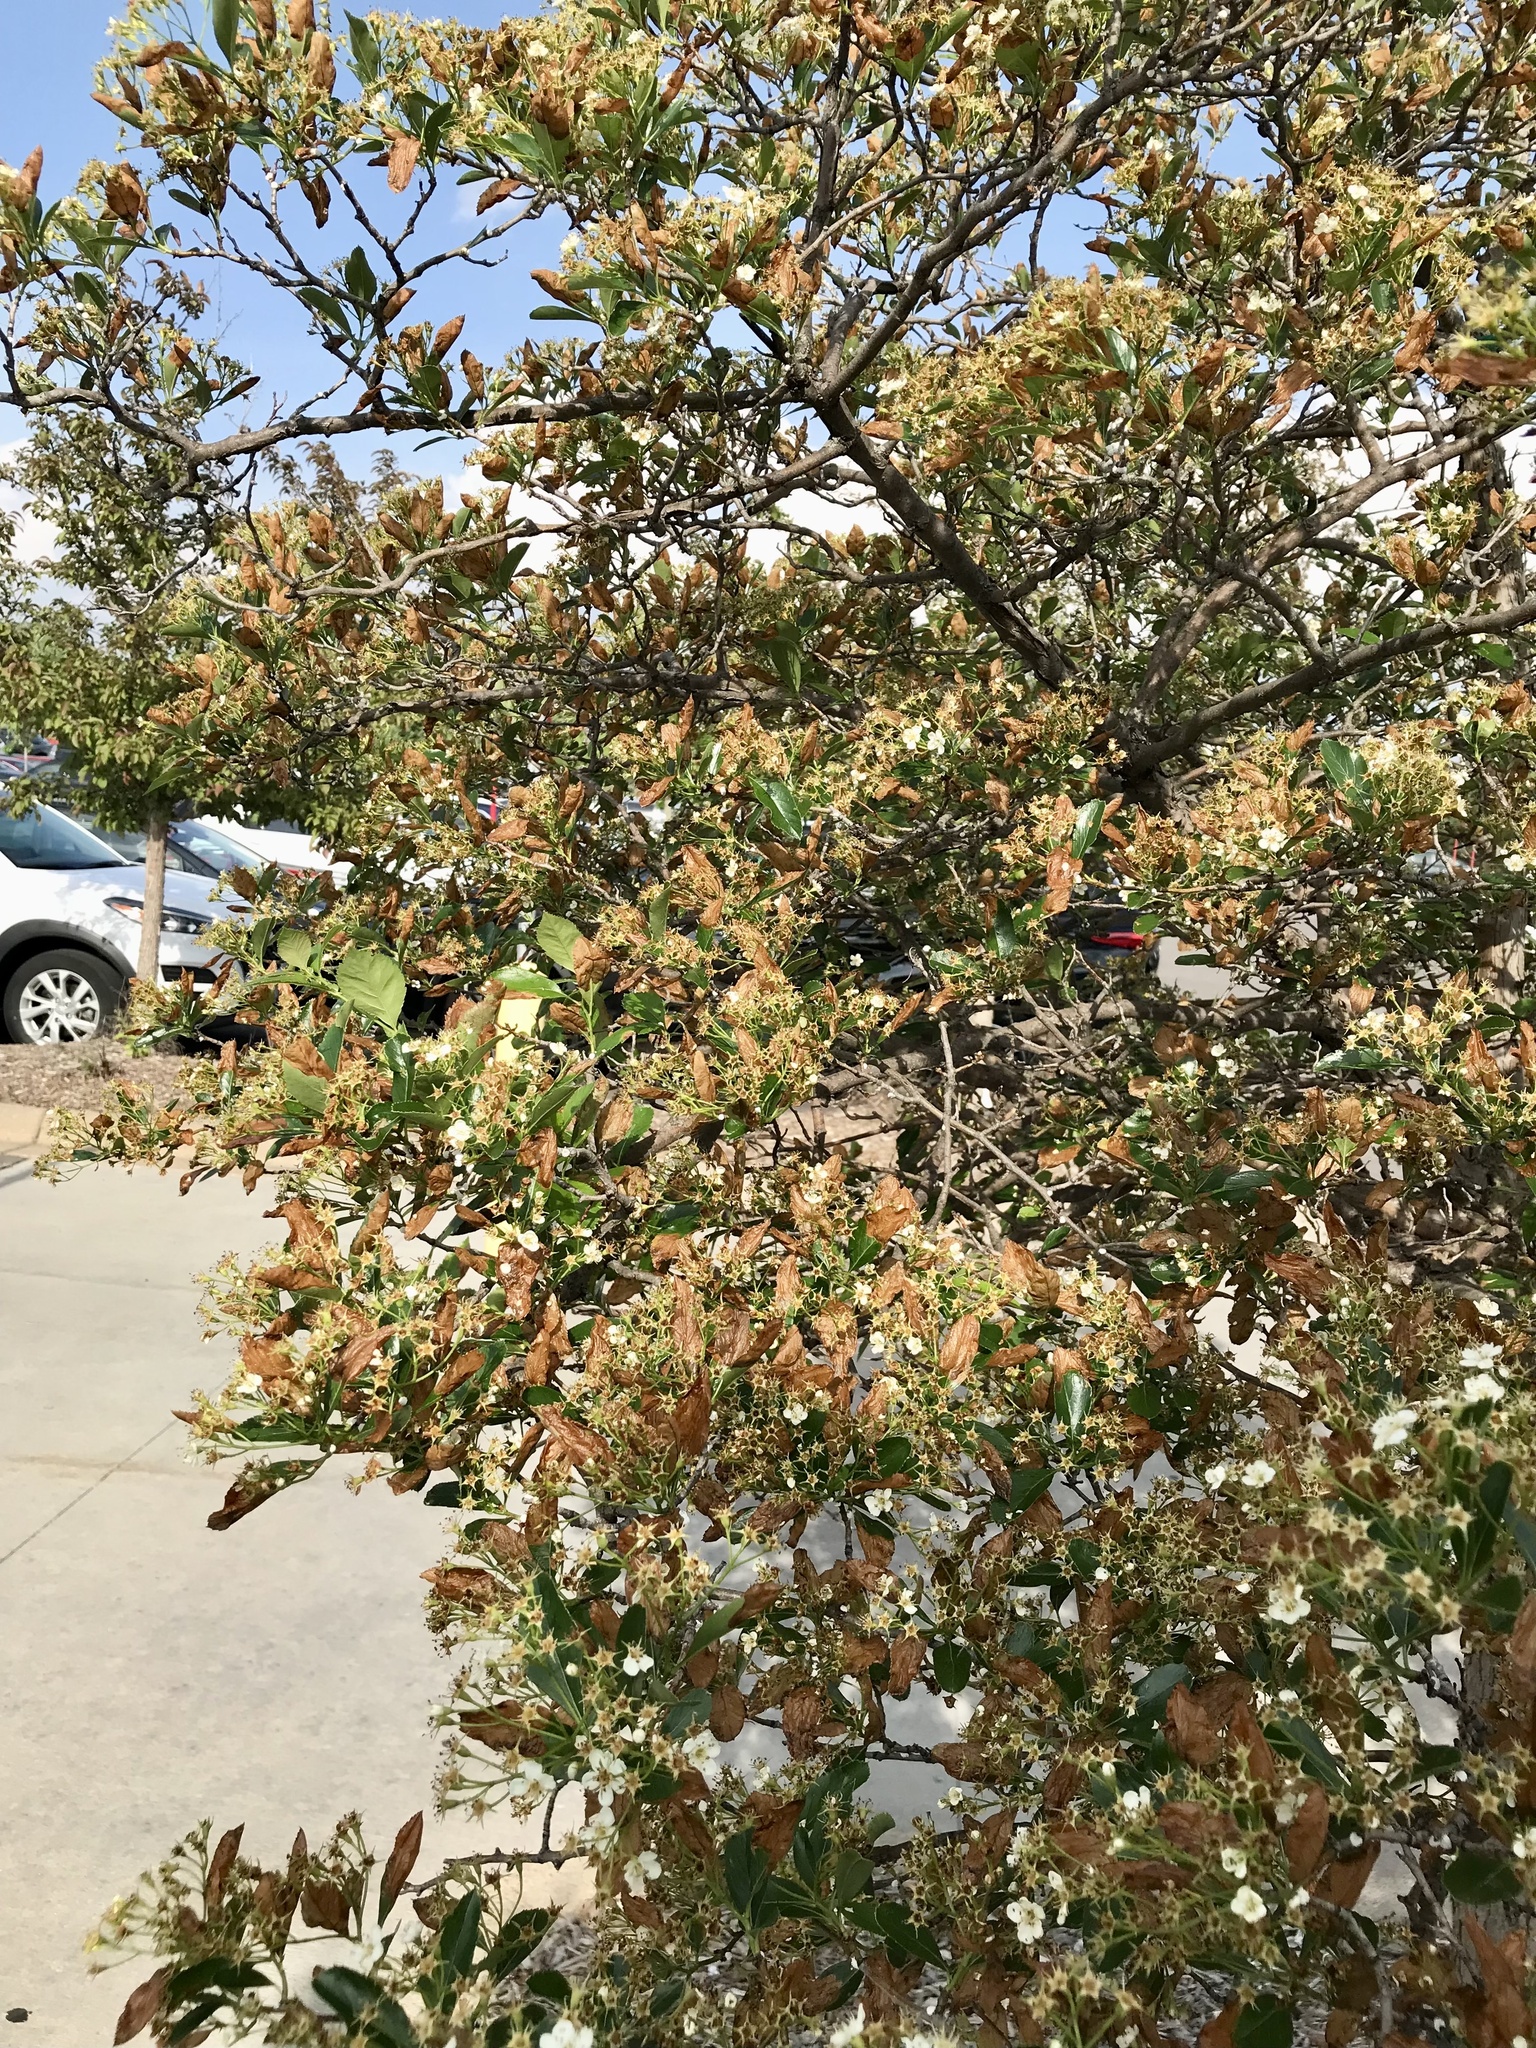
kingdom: Animalia
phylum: Arthropoda
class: Insecta
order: Hymenoptera
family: Tenthredinidae
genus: Profenusa
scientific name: Profenusa
